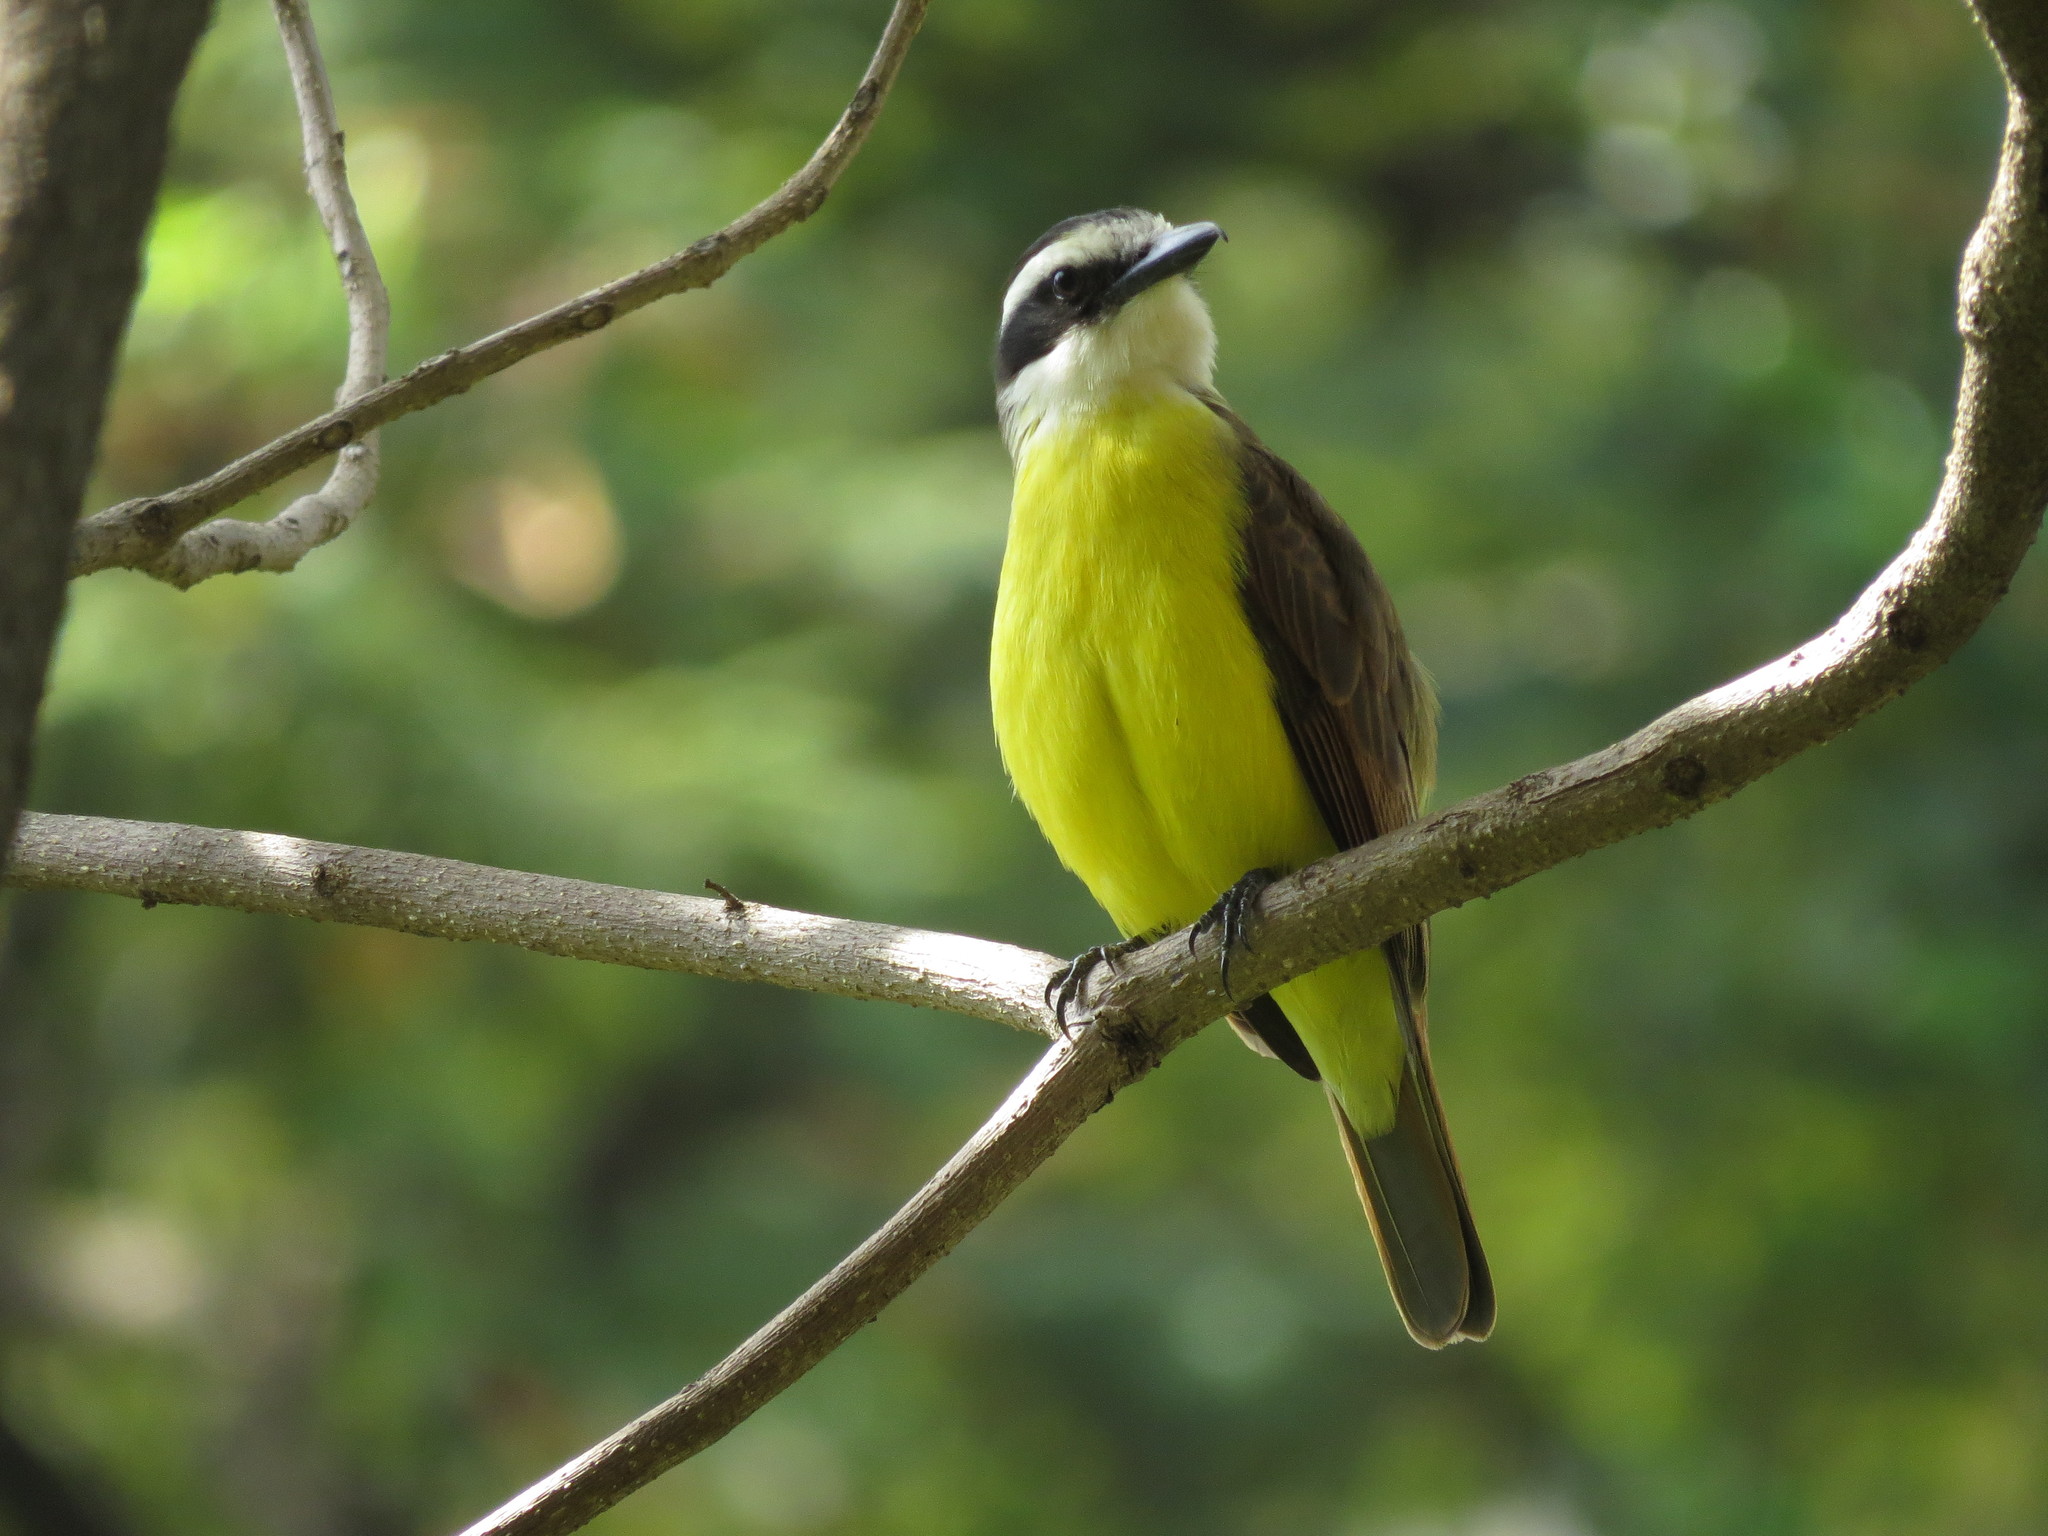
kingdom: Animalia
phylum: Chordata
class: Aves
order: Passeriformes
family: Tyrannidae
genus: Pitangus
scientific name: Pitangus sulphuratus
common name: Great kiskadee
